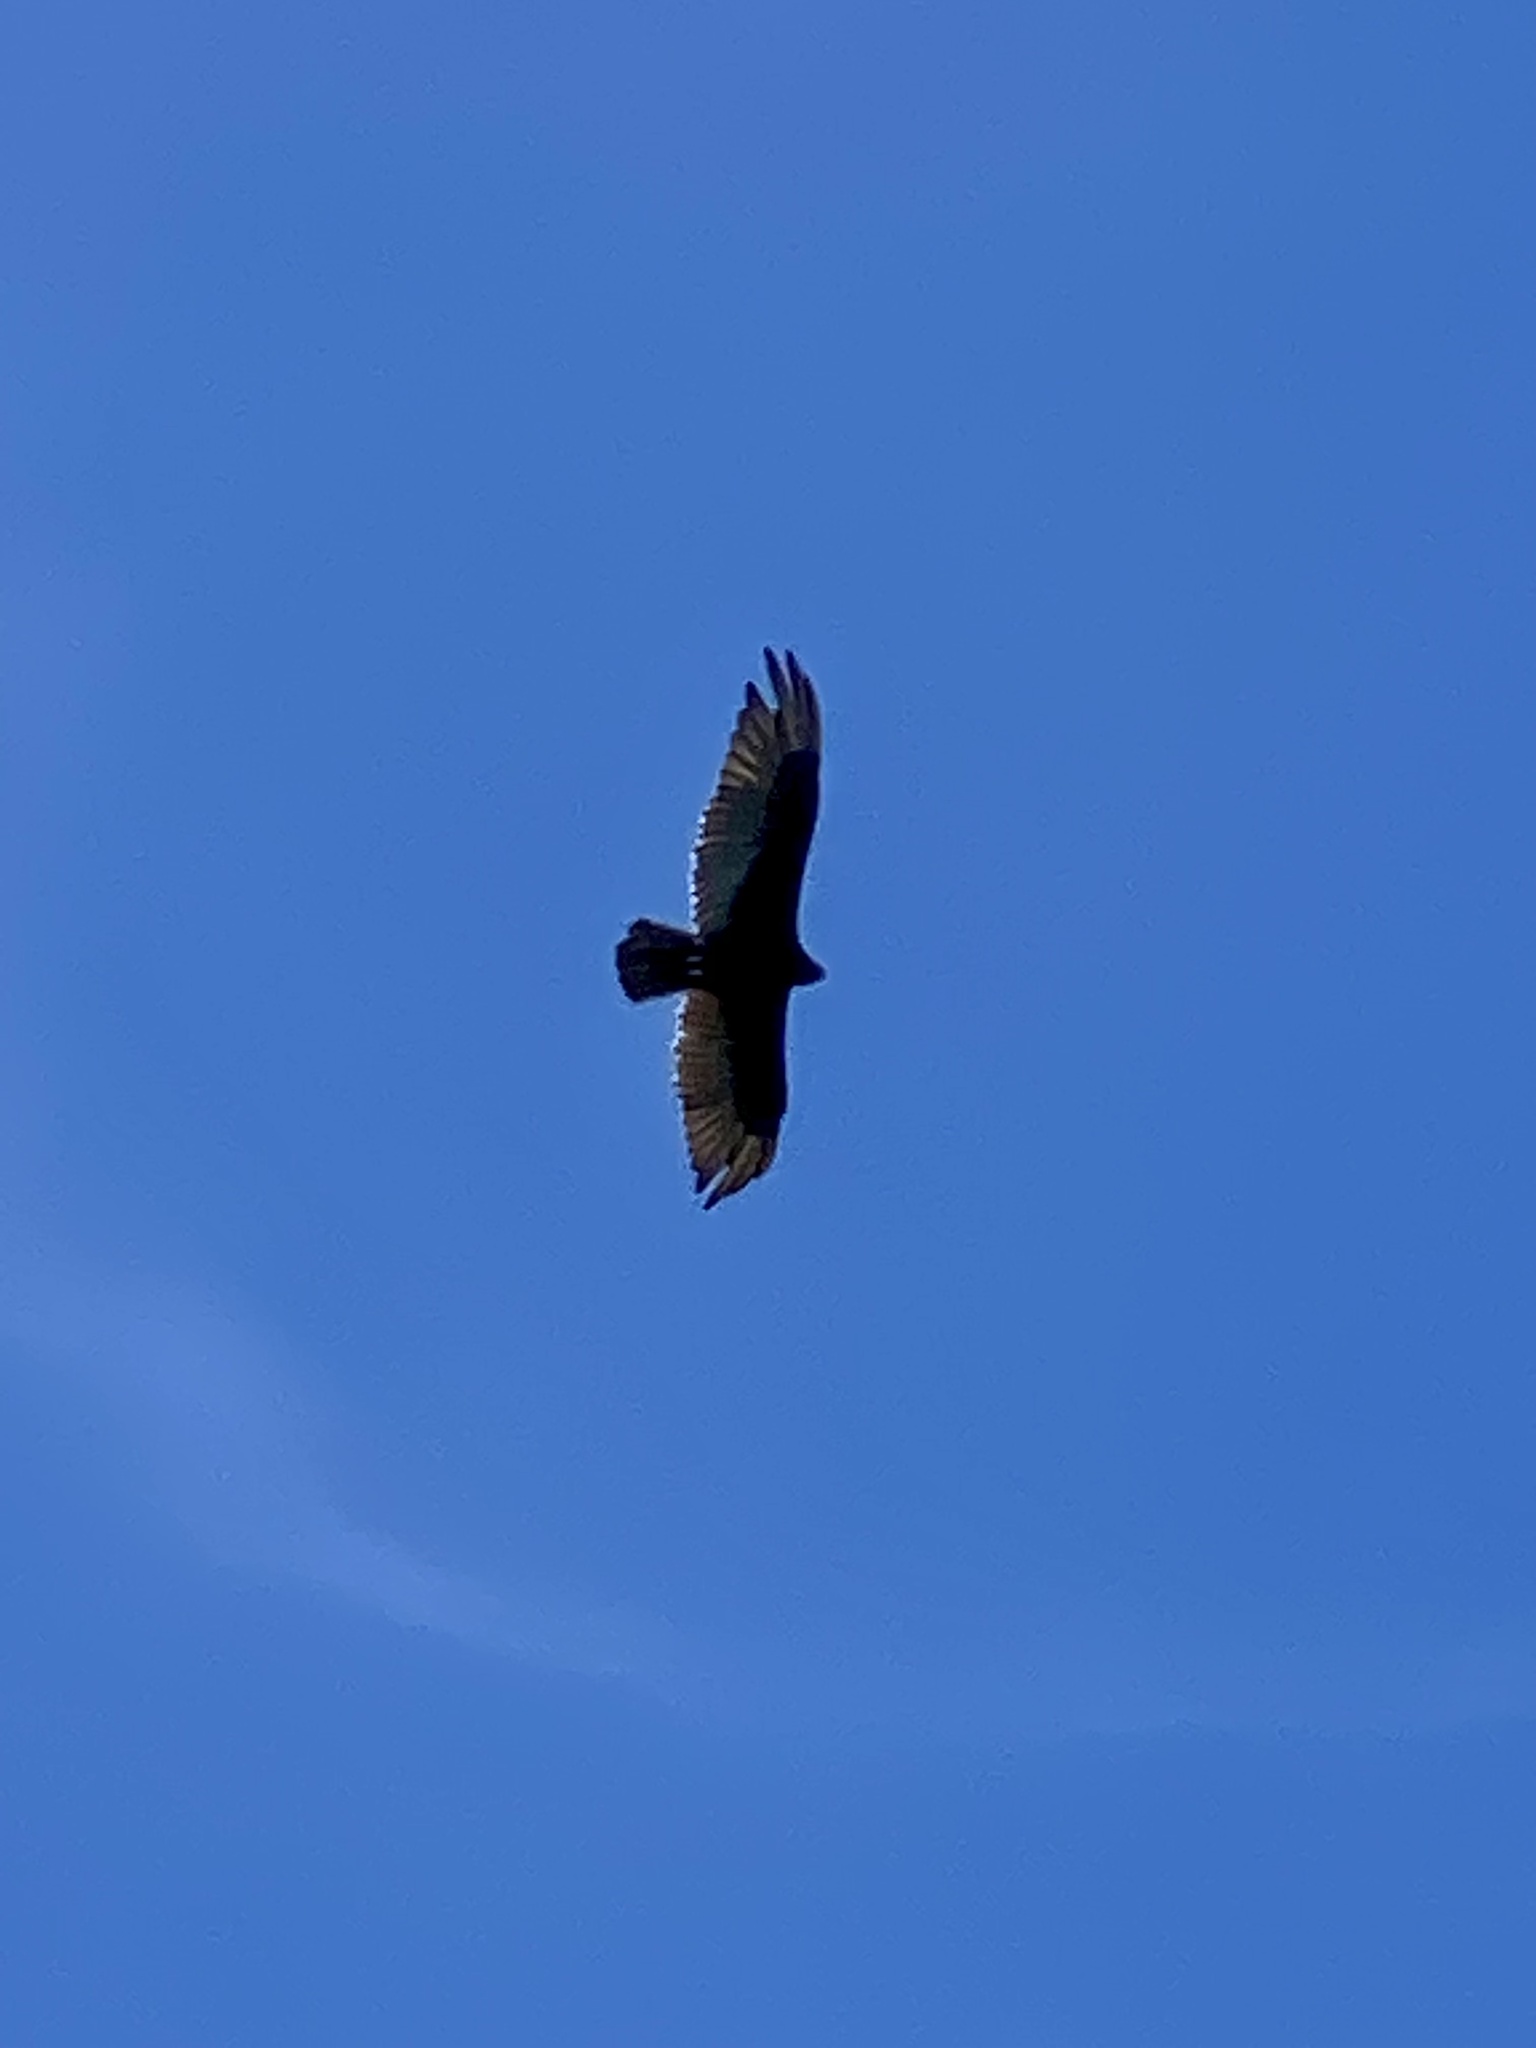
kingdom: Animalia
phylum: Chordata
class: Aves
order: Accipitriformes
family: Cathartidae
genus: Cathartes
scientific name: Cathartes aura
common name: Turkey vulture
